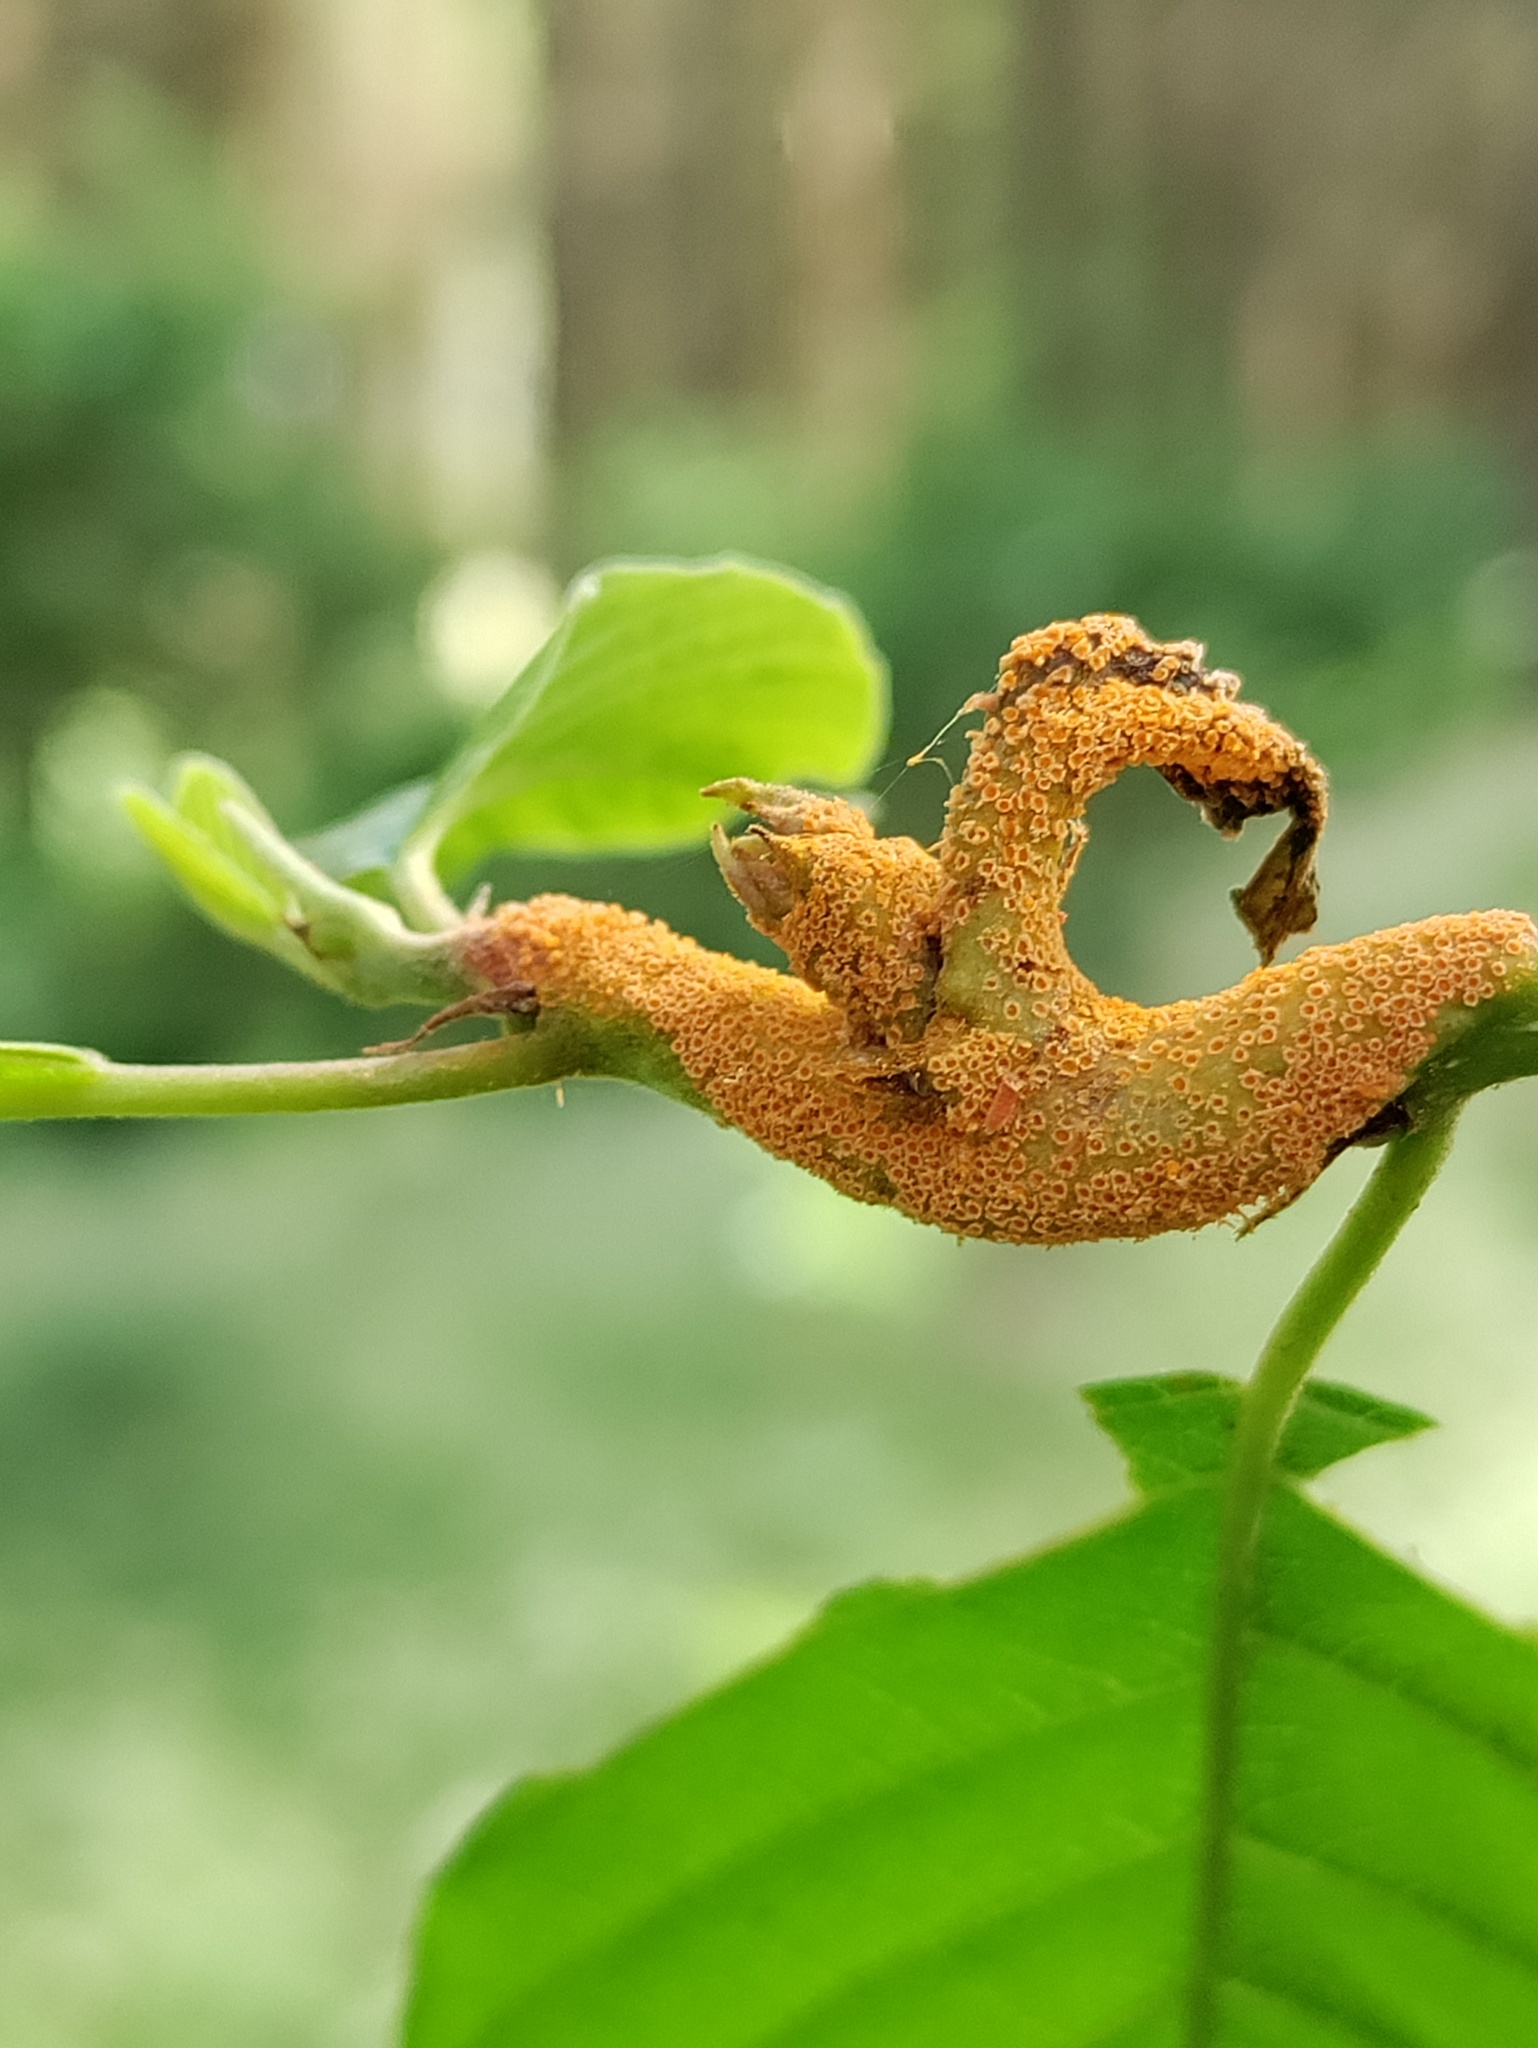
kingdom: Fungi
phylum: Basidiomycota
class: Pucciniomycetes
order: Pucciniales
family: Pucciniaceae
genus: Puccinia
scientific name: Puccinia coronata
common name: Crown rust
